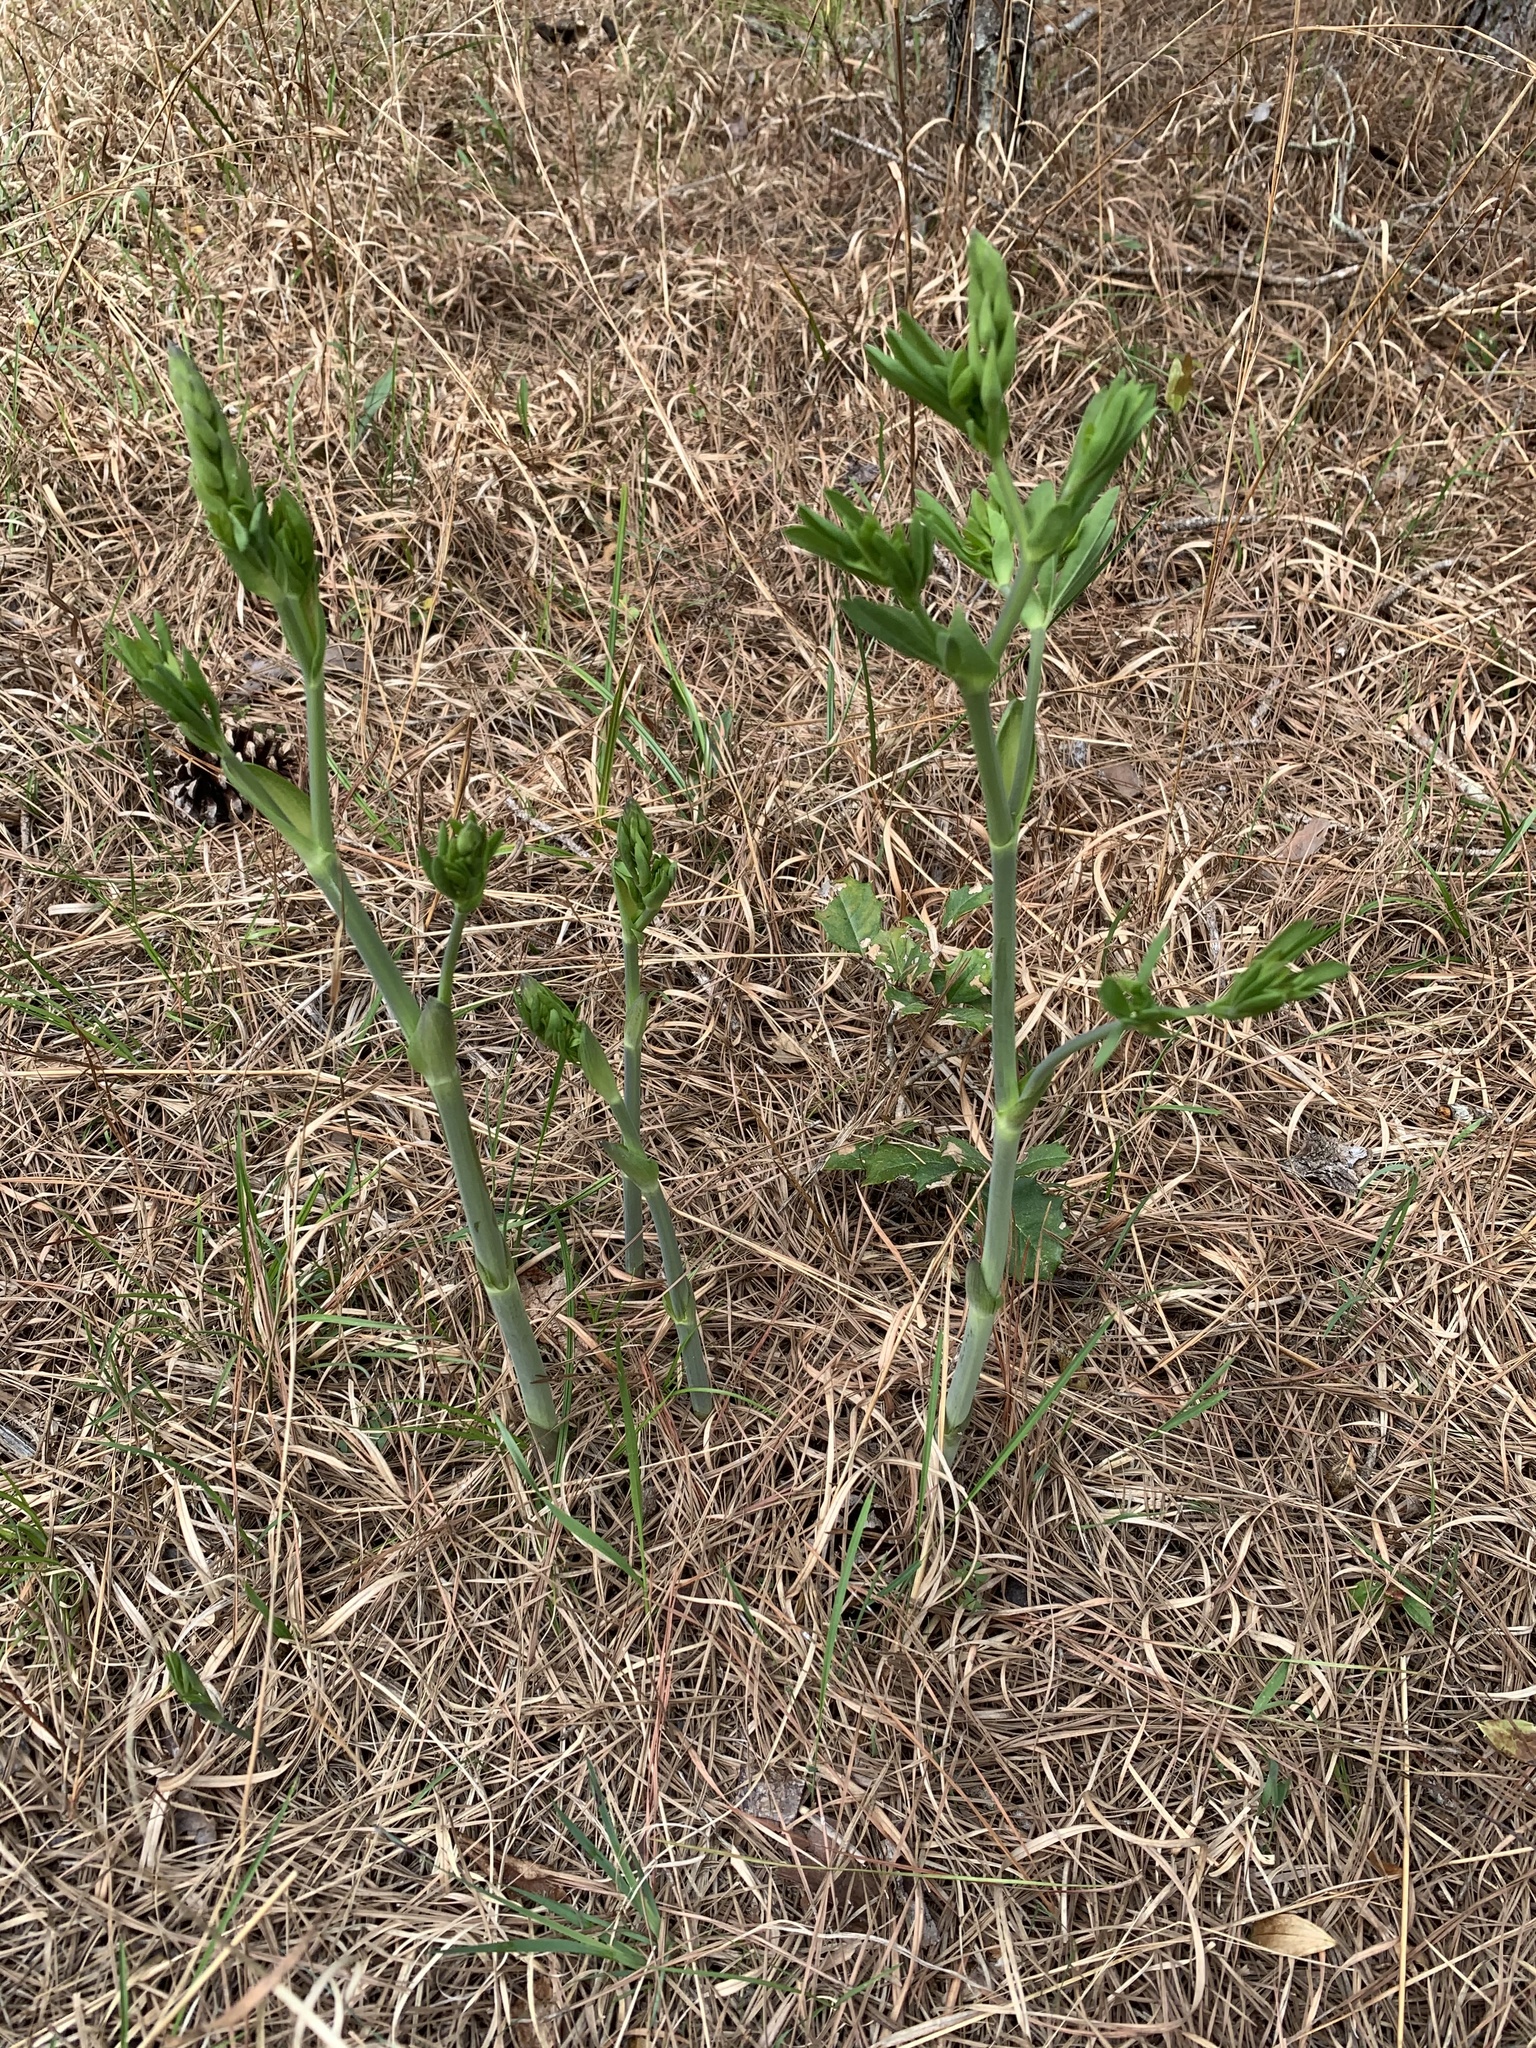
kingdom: Plantae
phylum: Tracheophyta
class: Magnoliopsida
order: Fabales
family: Fabaceae
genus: Baptisia
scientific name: Baptisia australis
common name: Blue false indigo
